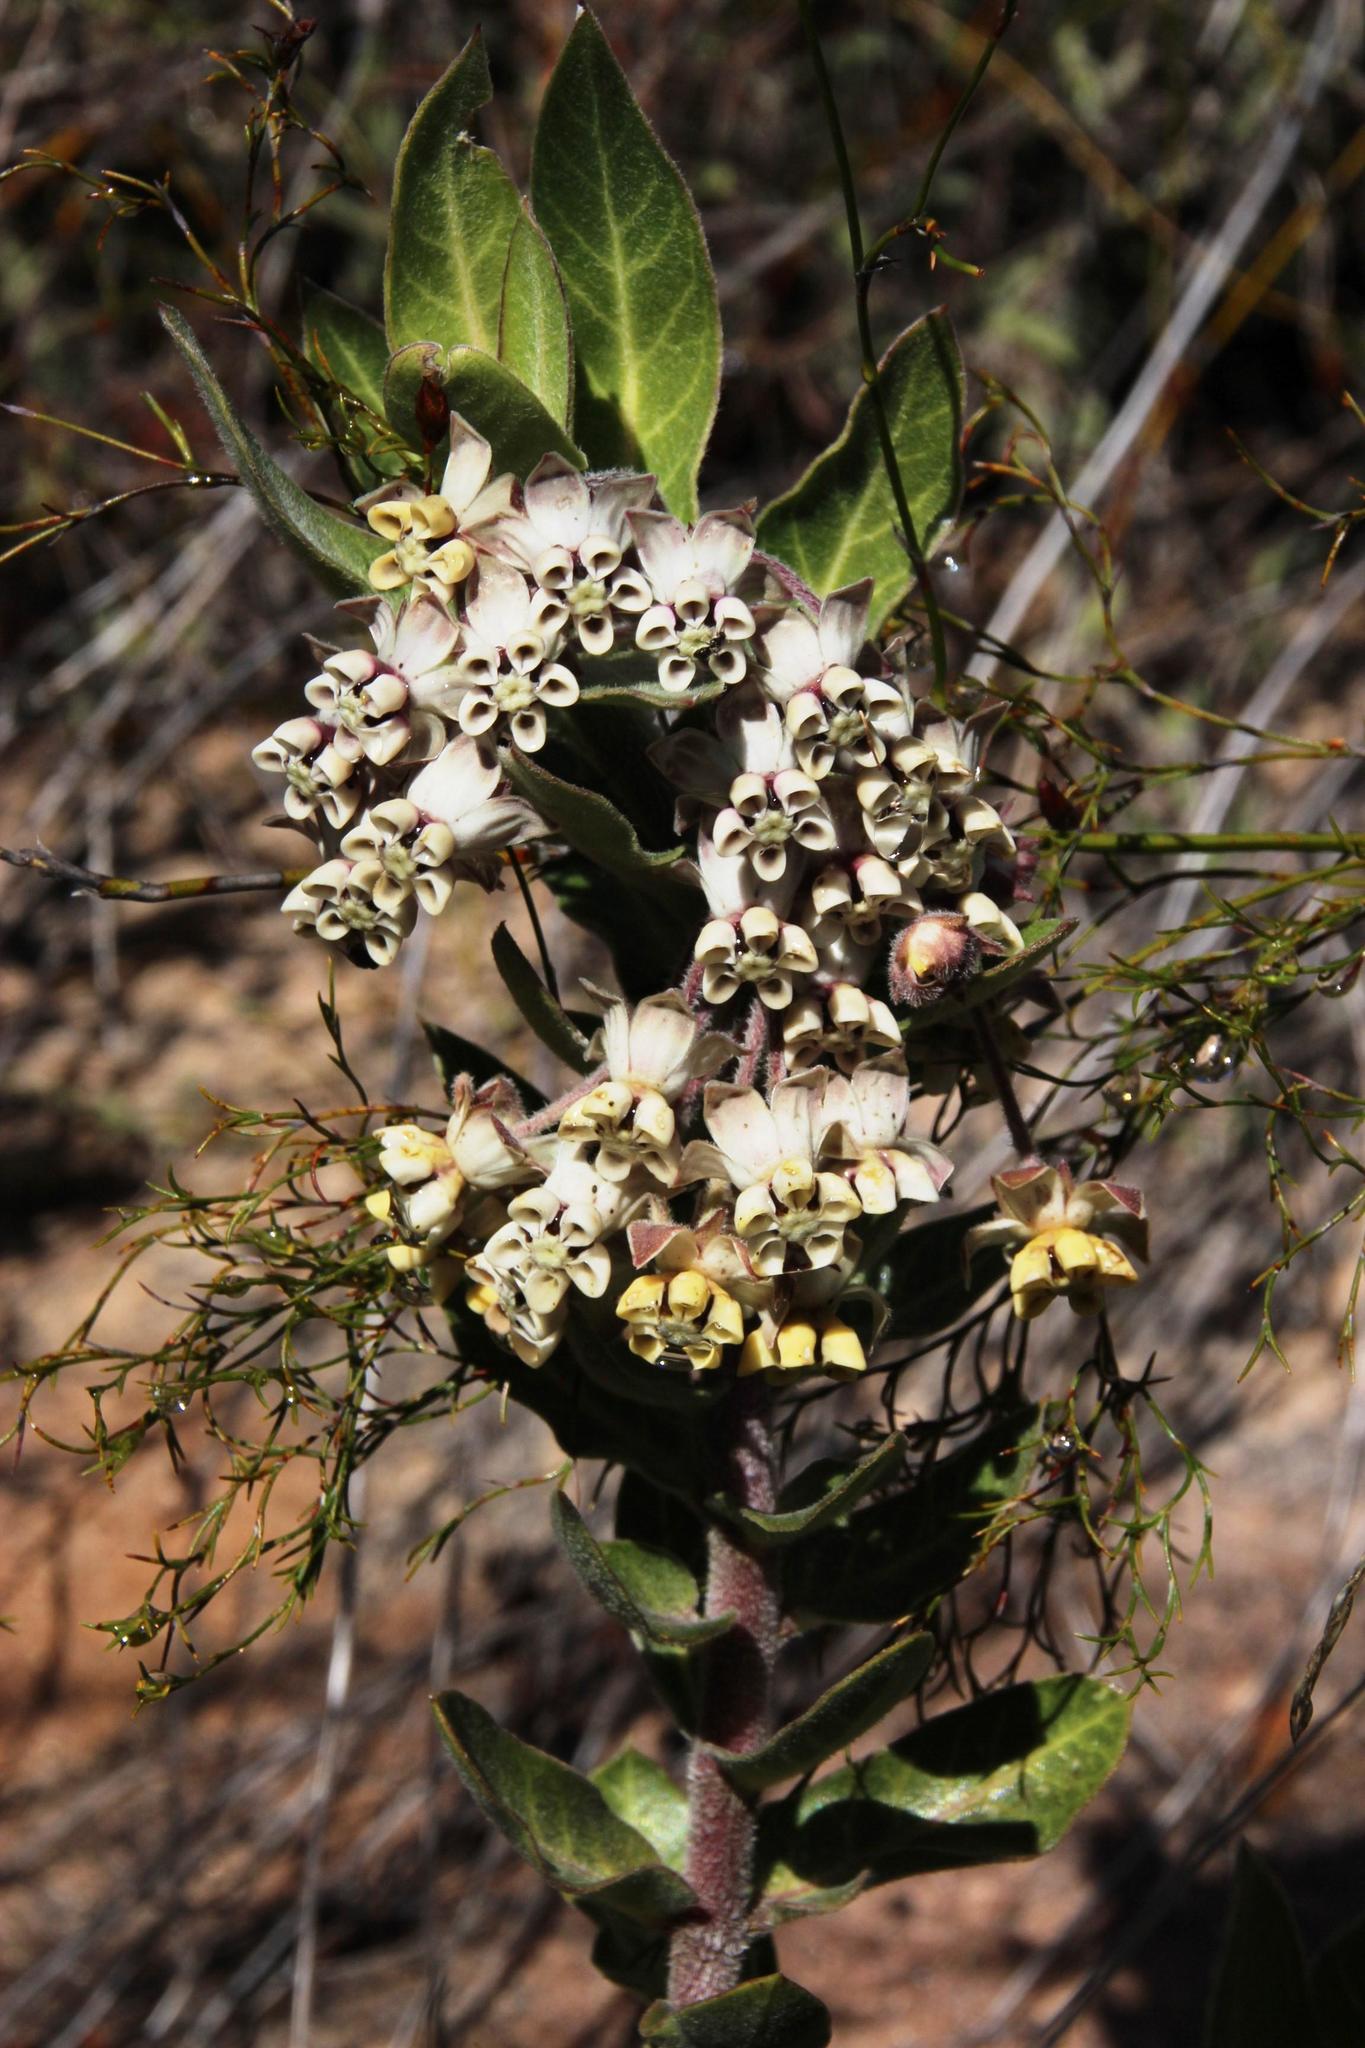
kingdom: Plantae
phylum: Tracheophyta
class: Magnoliopsida
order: Gentianales
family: Apocynaceae
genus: Gomphocarpus
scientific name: Gomphocarpus cancellatus
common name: Wild cotton
